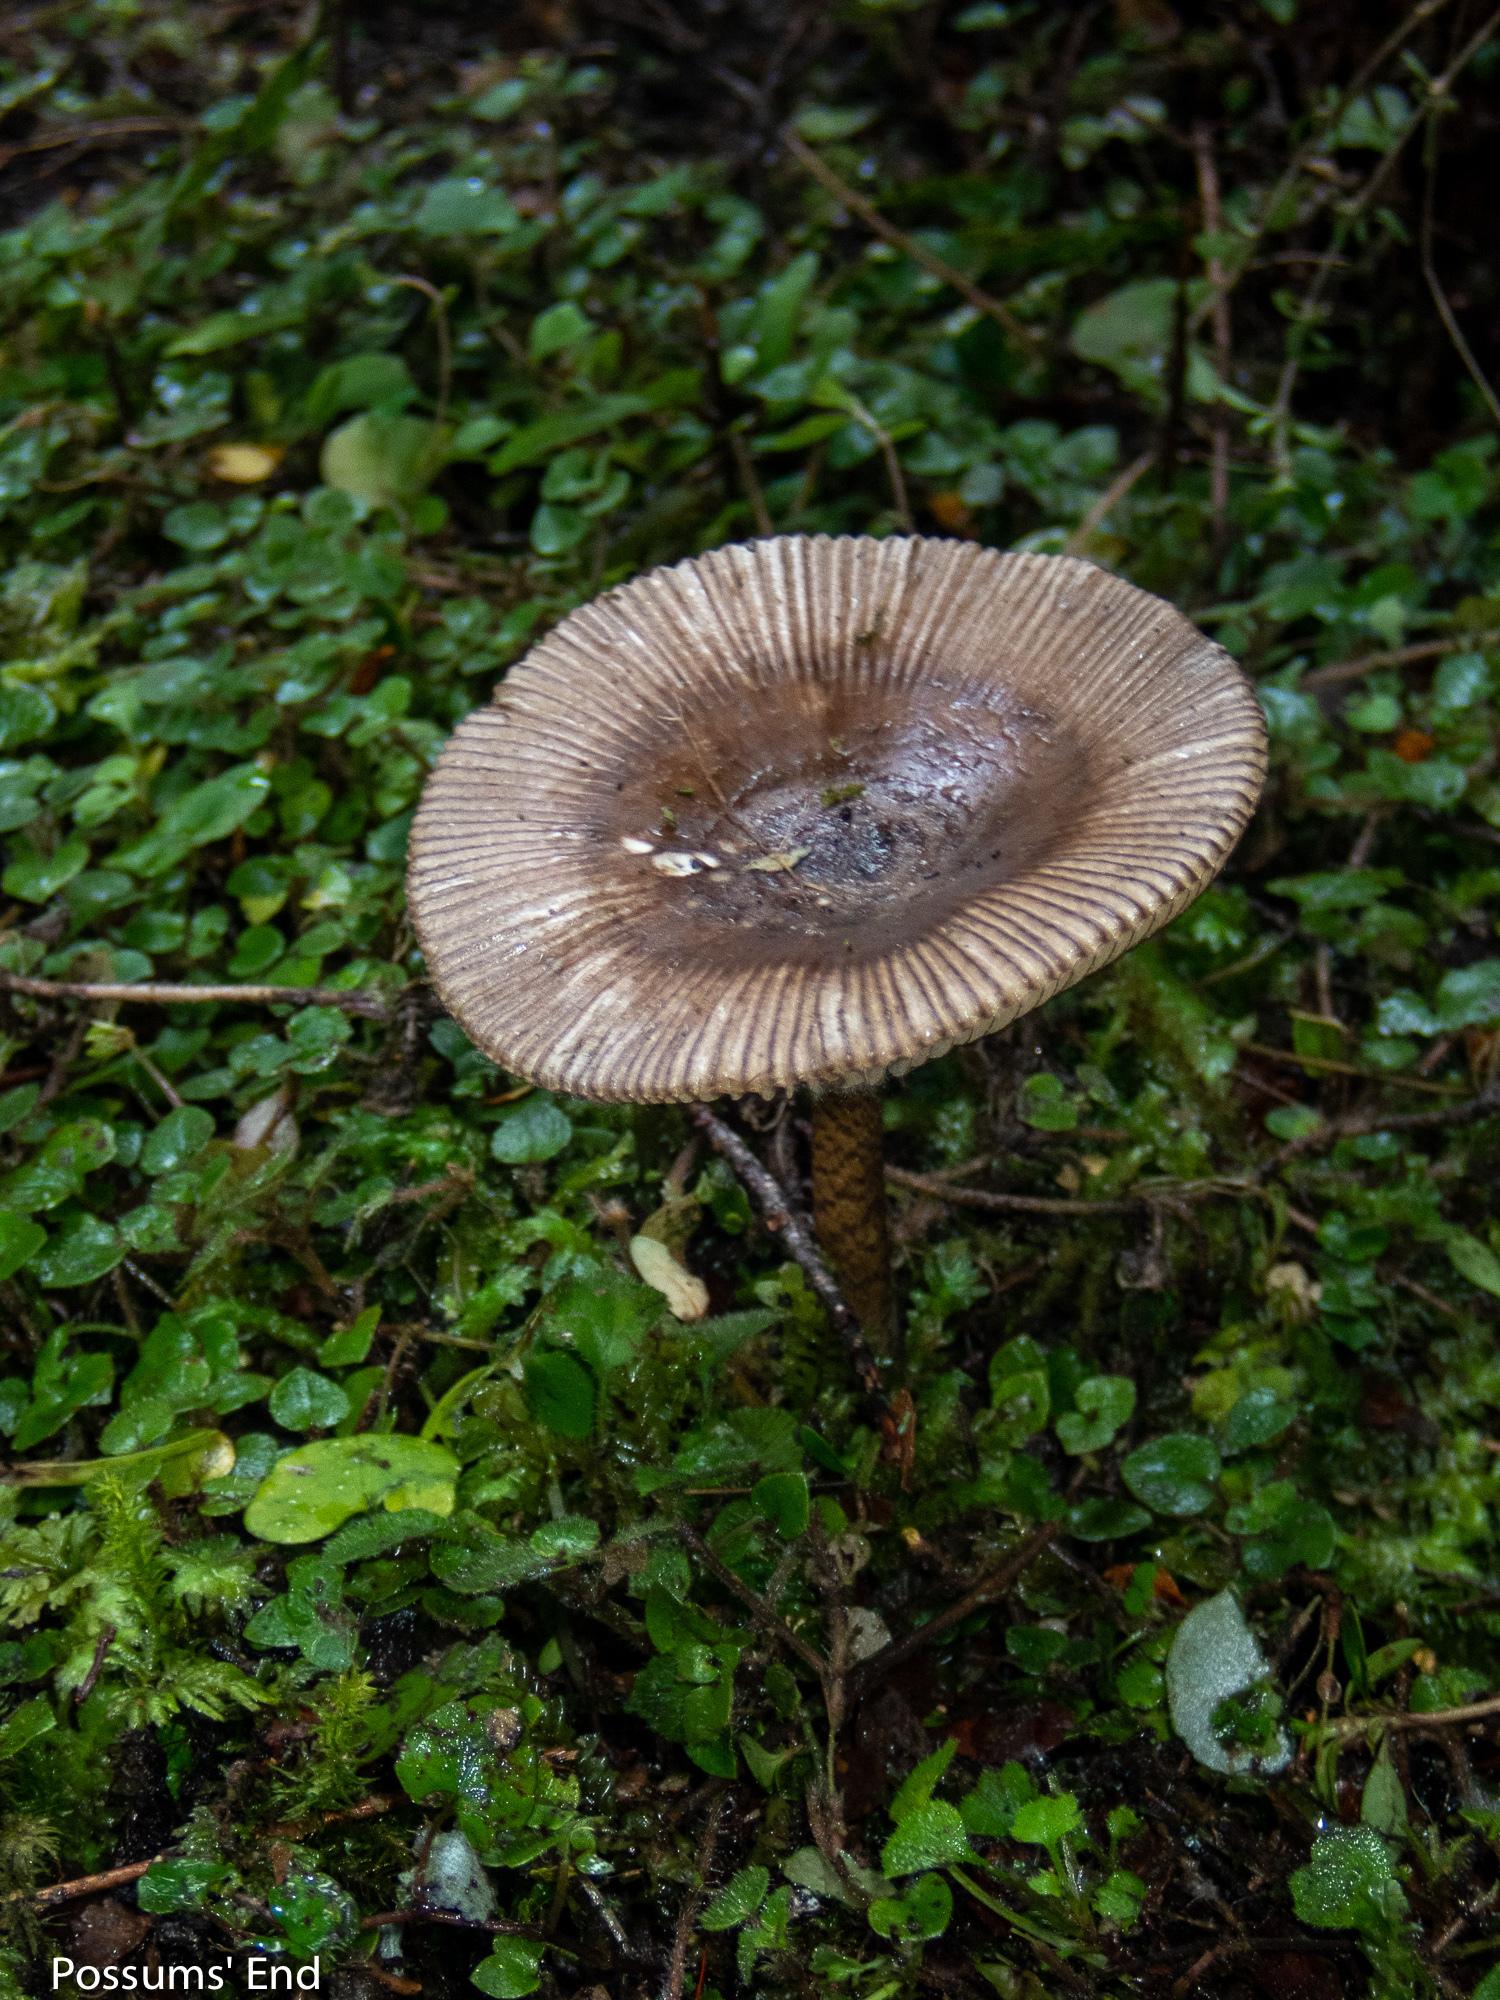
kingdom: Fungi
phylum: Basidiomycota
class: Agaricomycetes
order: Agaricales
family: Amanitaceae
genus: Amanita
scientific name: Amanita pekeoides
